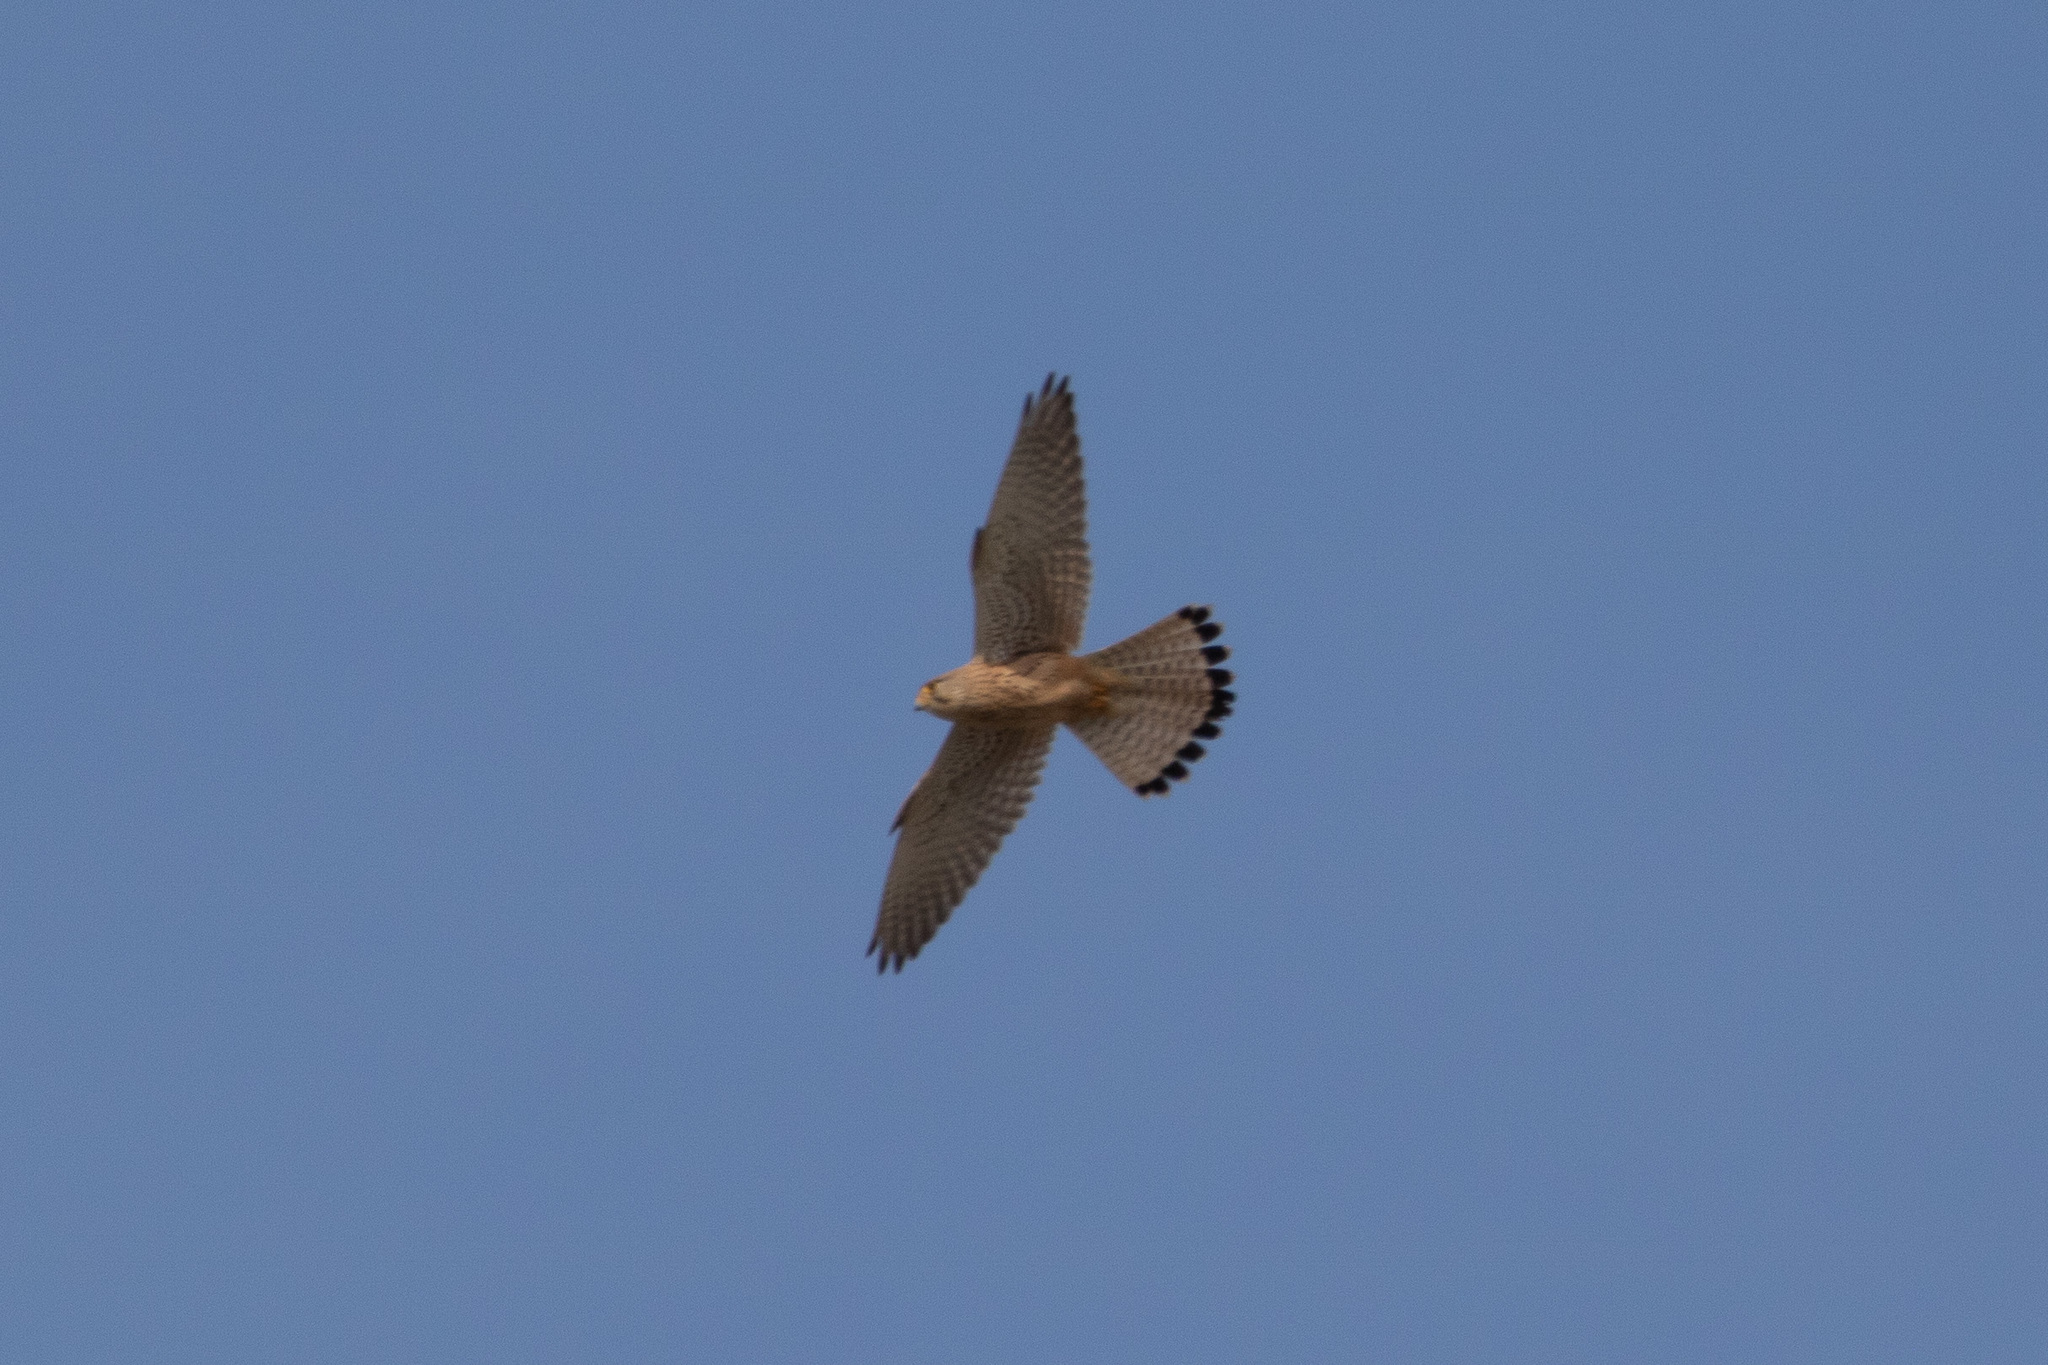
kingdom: Animalia
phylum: Chordata
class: Aves
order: Falconiformes
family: Falconidae
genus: Falco
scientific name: Falco tinnunculus
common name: Common kestrel
